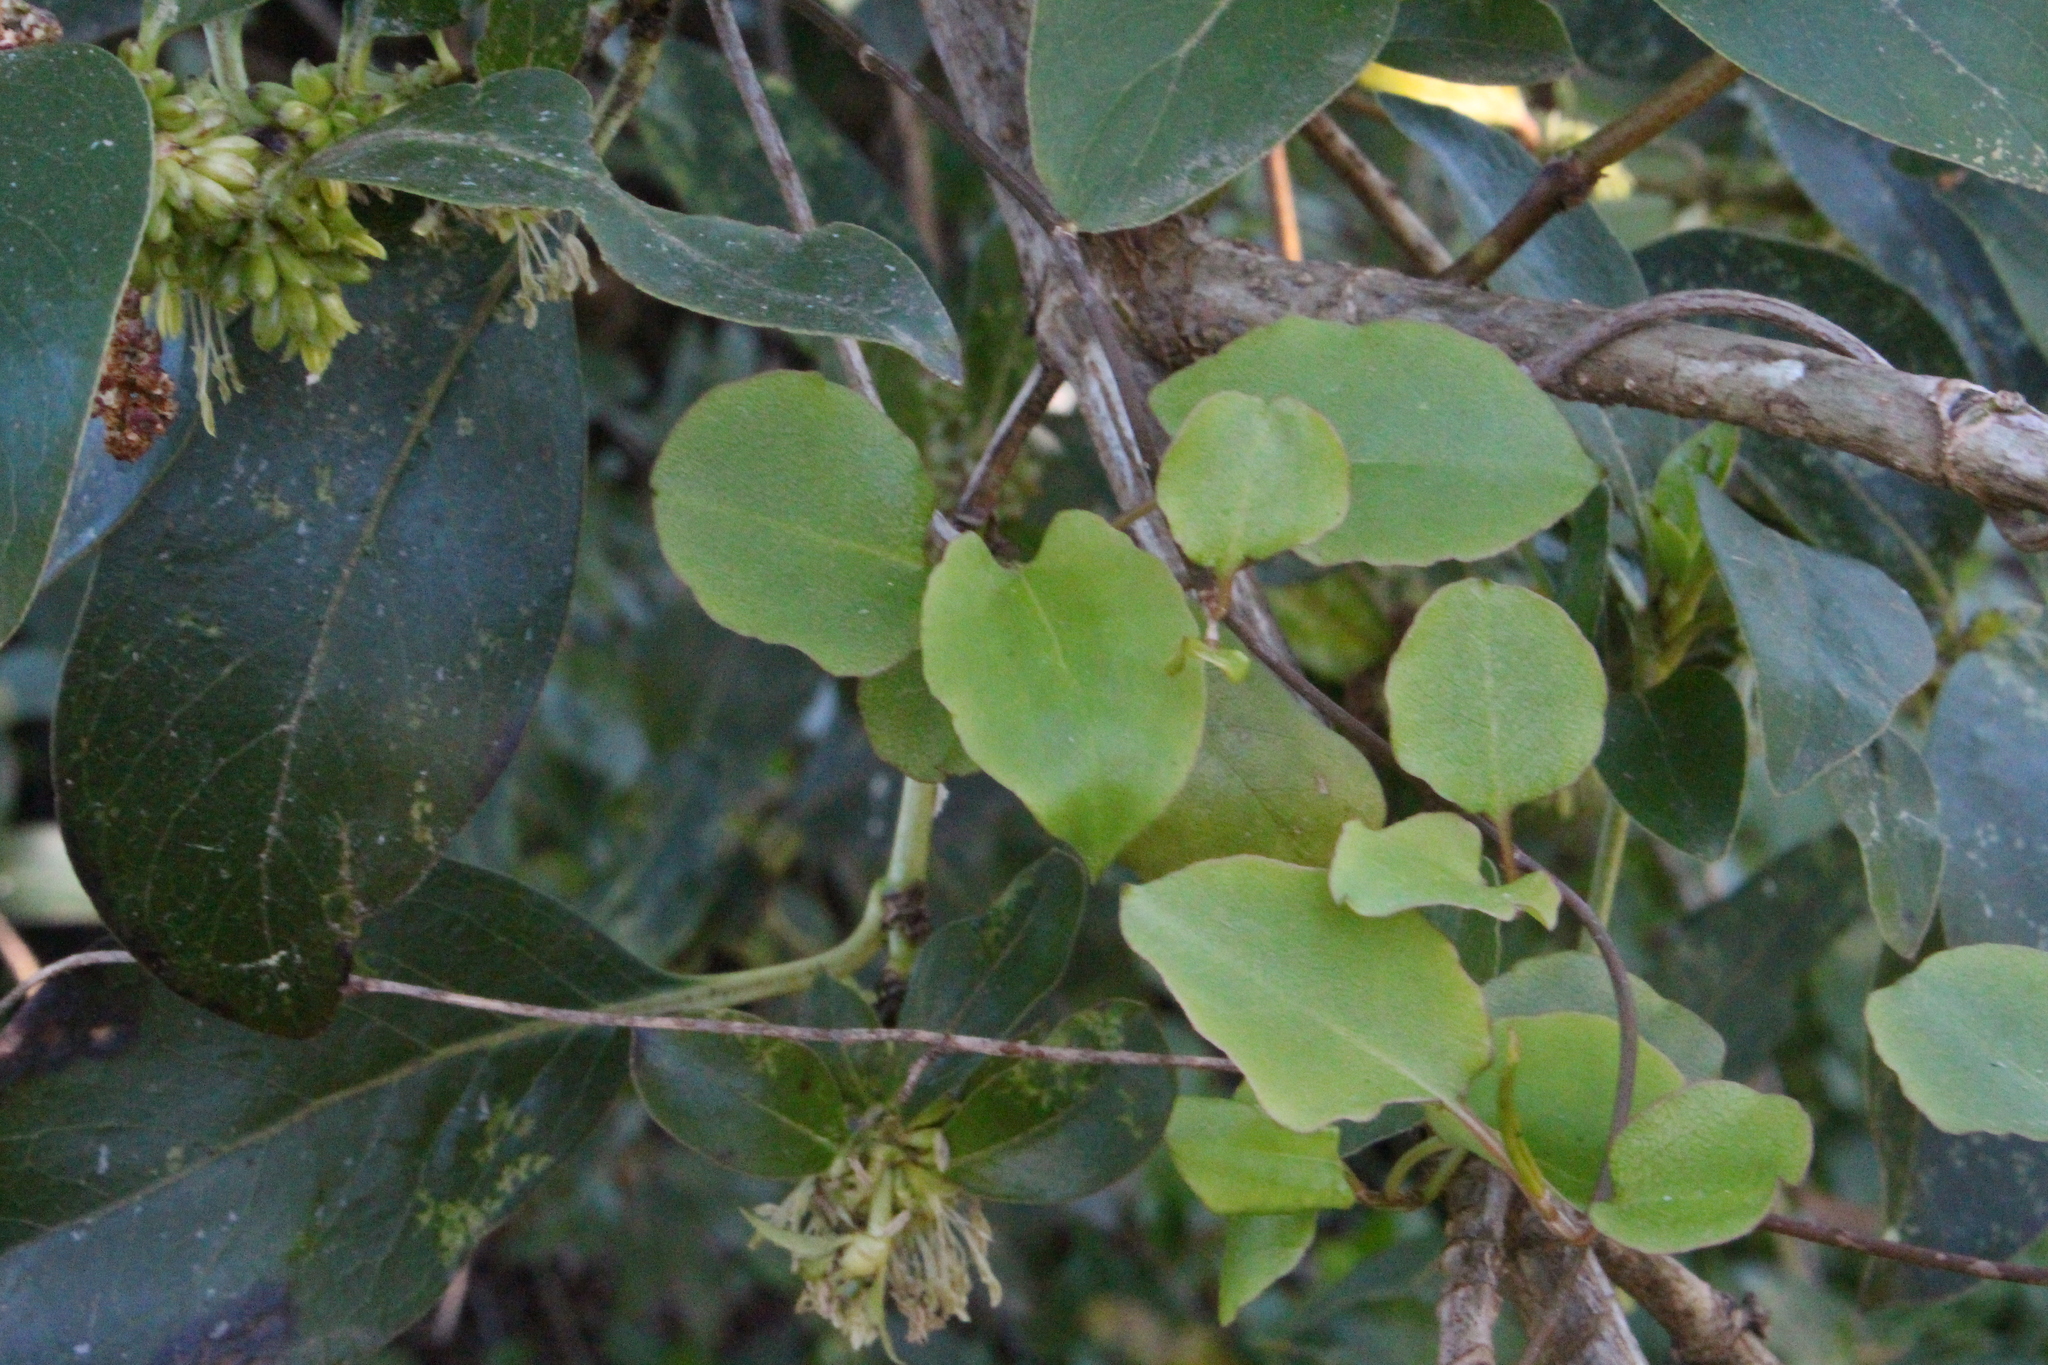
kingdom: Plantae
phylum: Tracheophyta
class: Magnoliopsida
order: Caryophyllales
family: Polygonaceae
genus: Muehlenbeckia
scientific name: Muehlenbeckia australis
